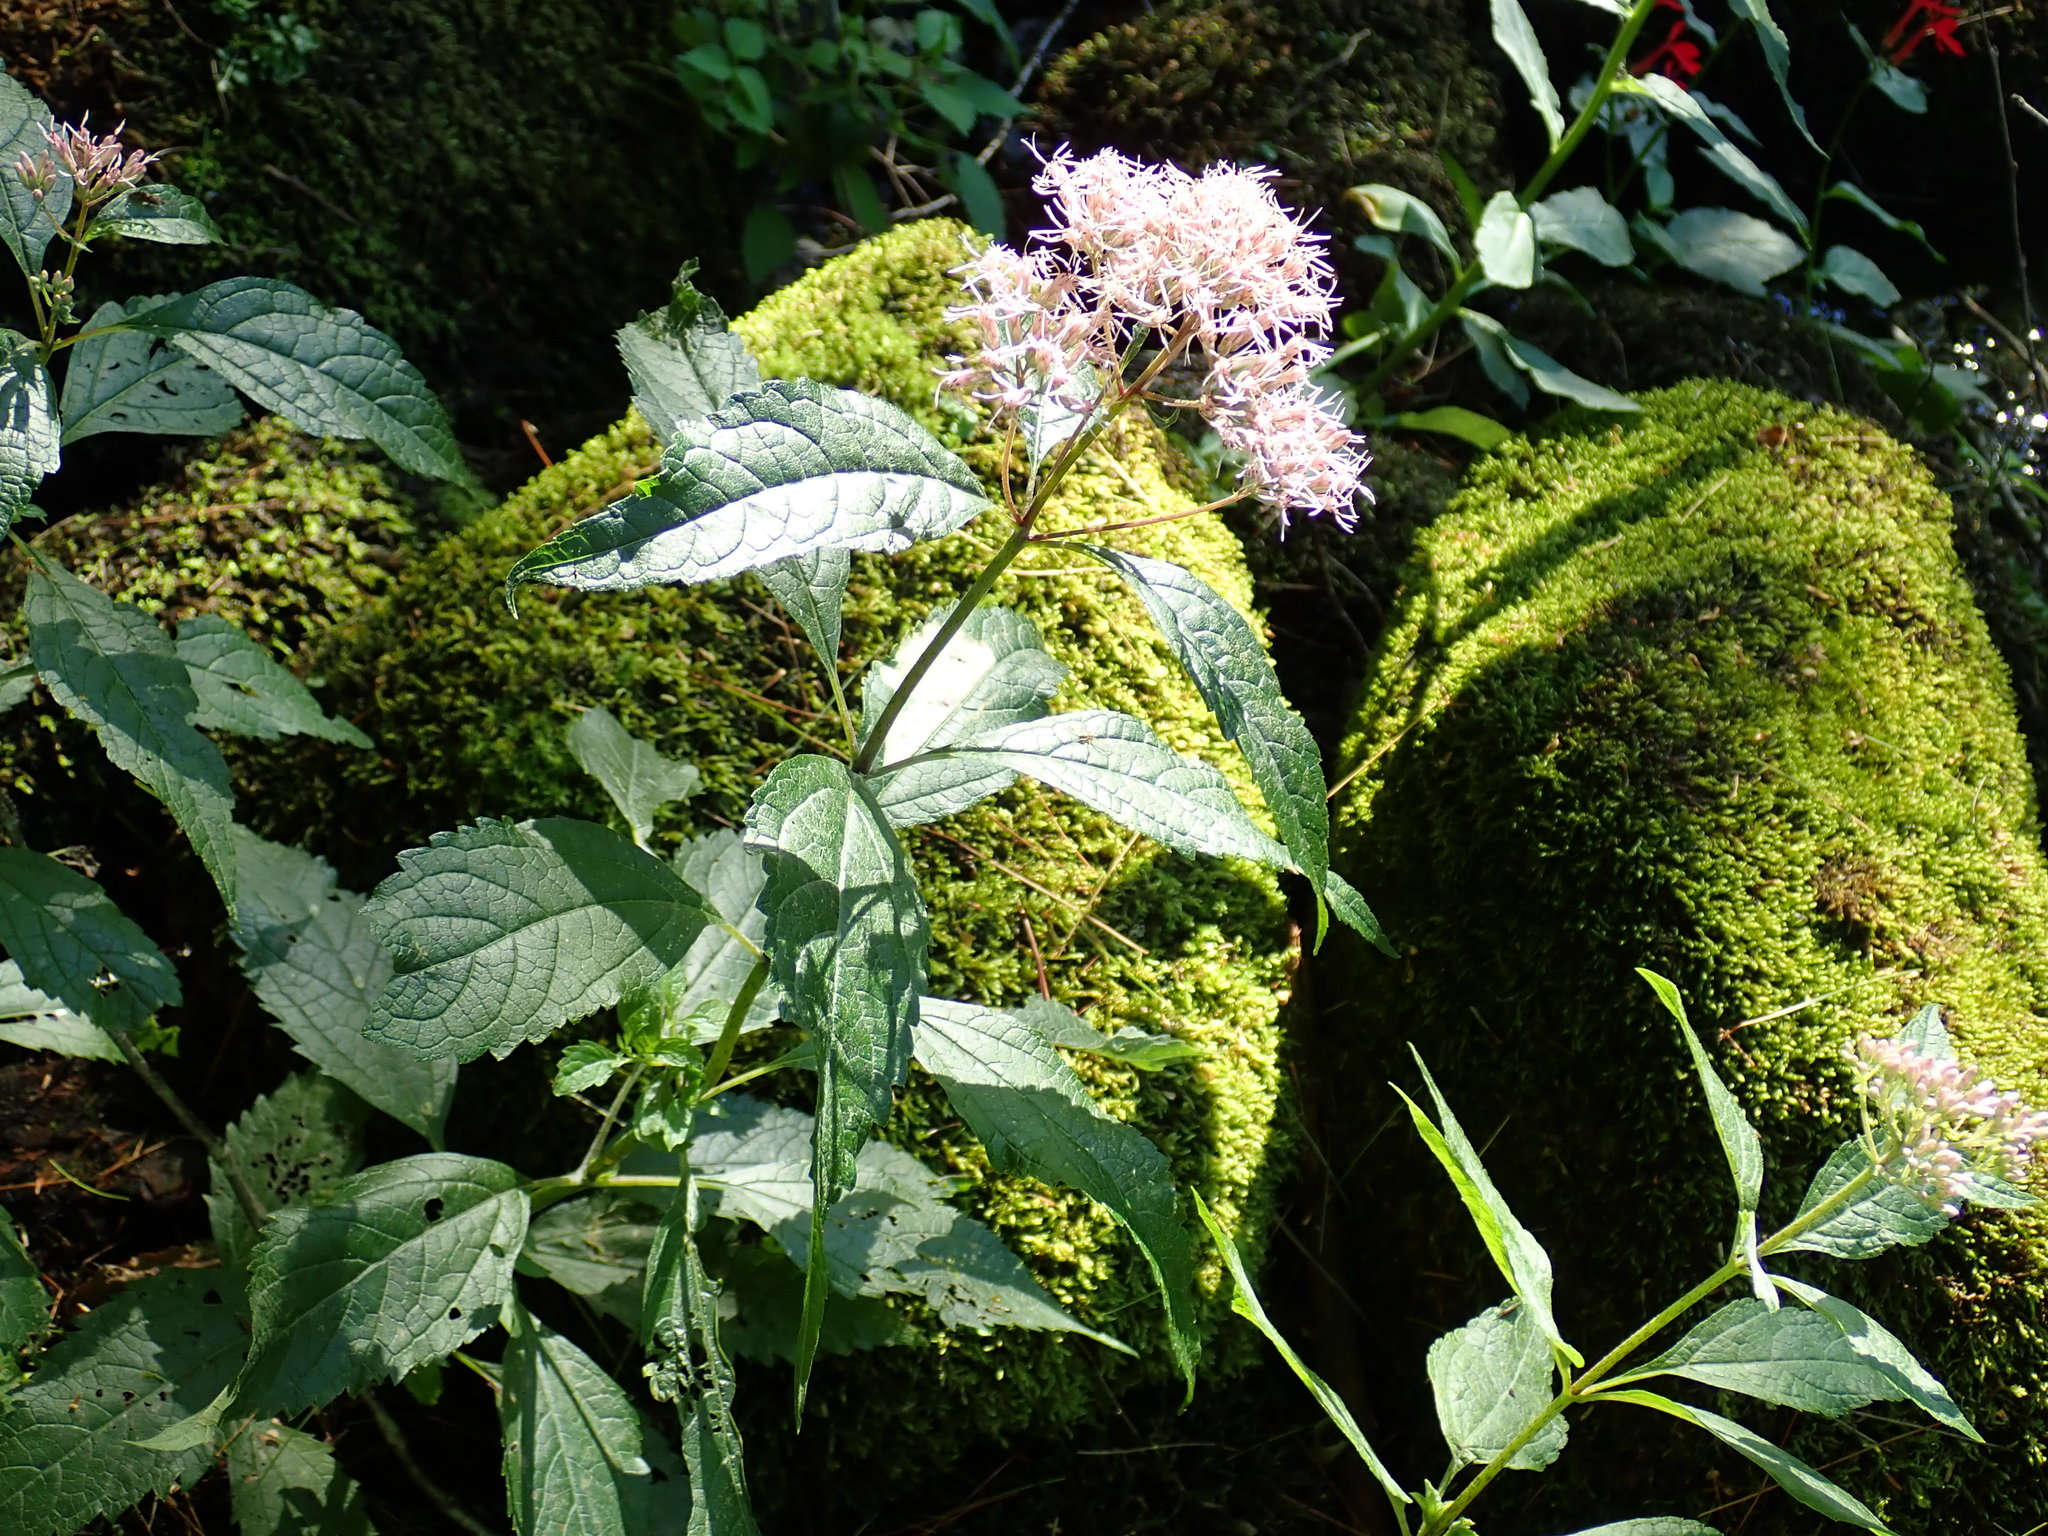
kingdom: Plantae
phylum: Tracheophyta
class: Magnoliopsida
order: Asterales
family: Asteraceae
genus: Eutrochium
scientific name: Eutrochium
